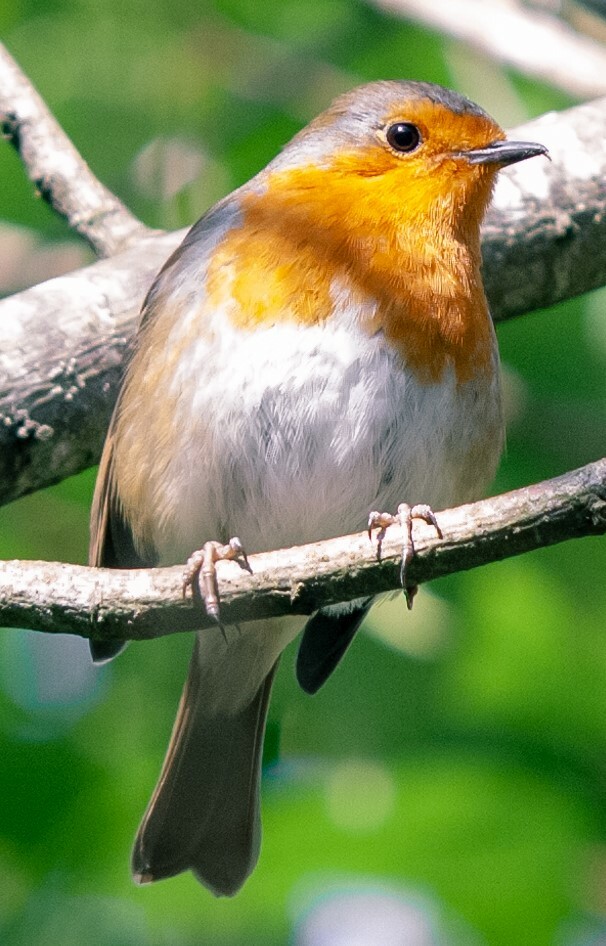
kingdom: Animalia
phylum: Chordata
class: Aves
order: Passeriformes
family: Muscicapidae
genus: Erithacus
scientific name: Erithacus rubecula
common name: European robin
